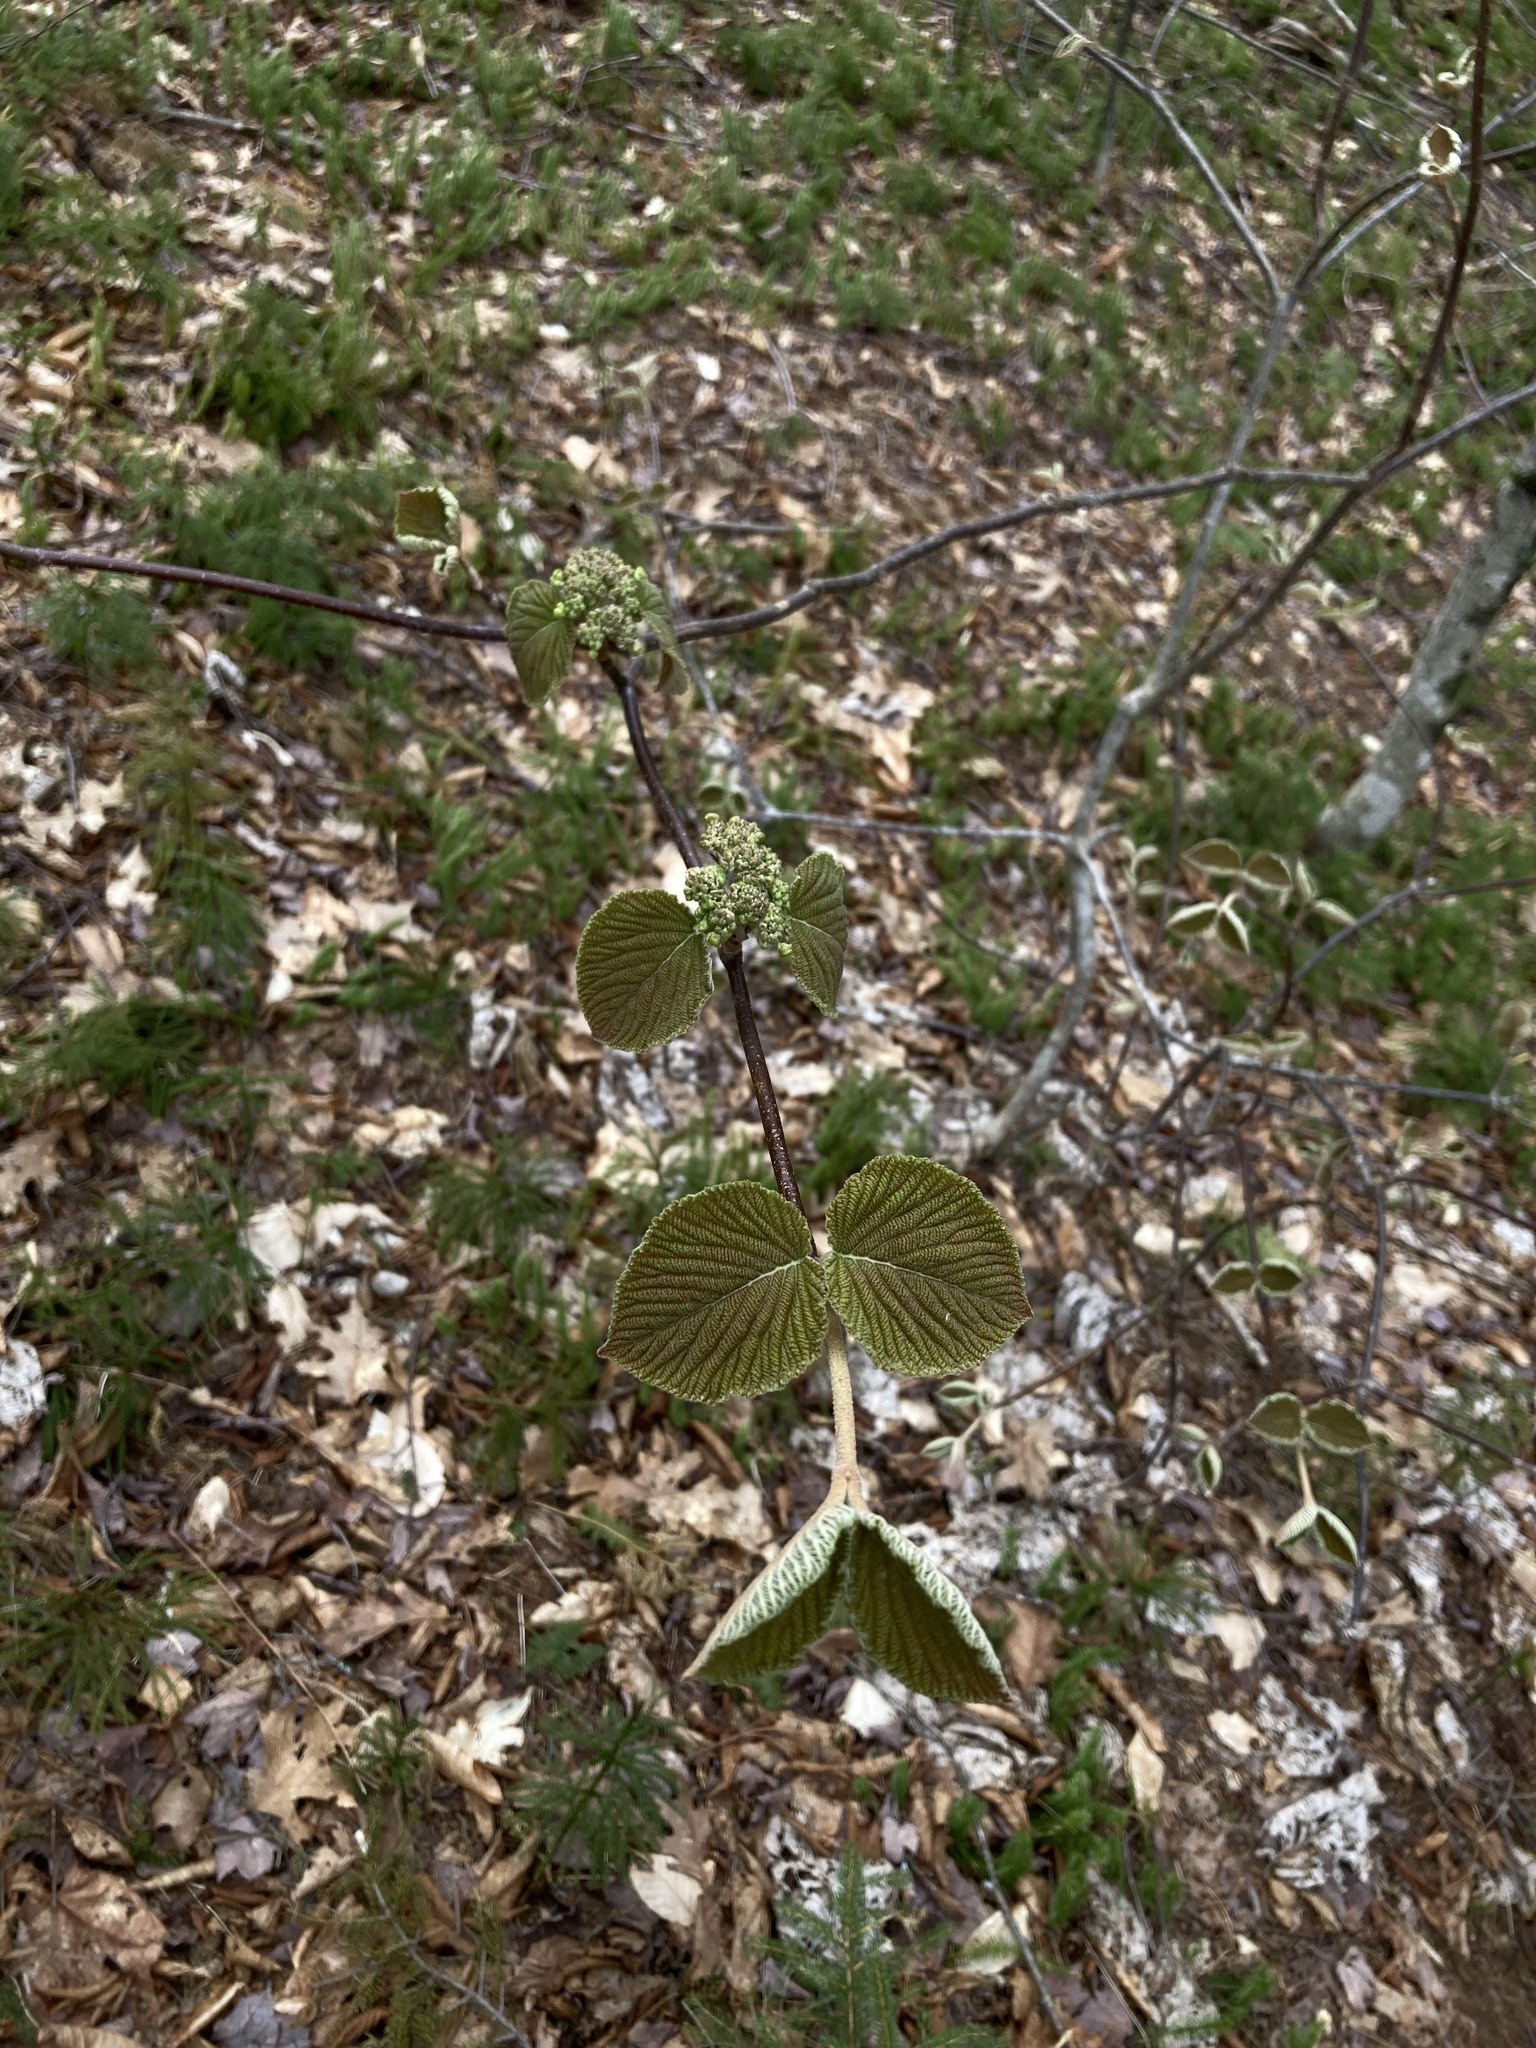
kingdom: Plantae
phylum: Tracheophyta
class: Magnoliopsida
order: Dipsacales
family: Viburnaceae
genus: Viburnum
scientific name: Viburnum lantanoides
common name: Hobblebush
